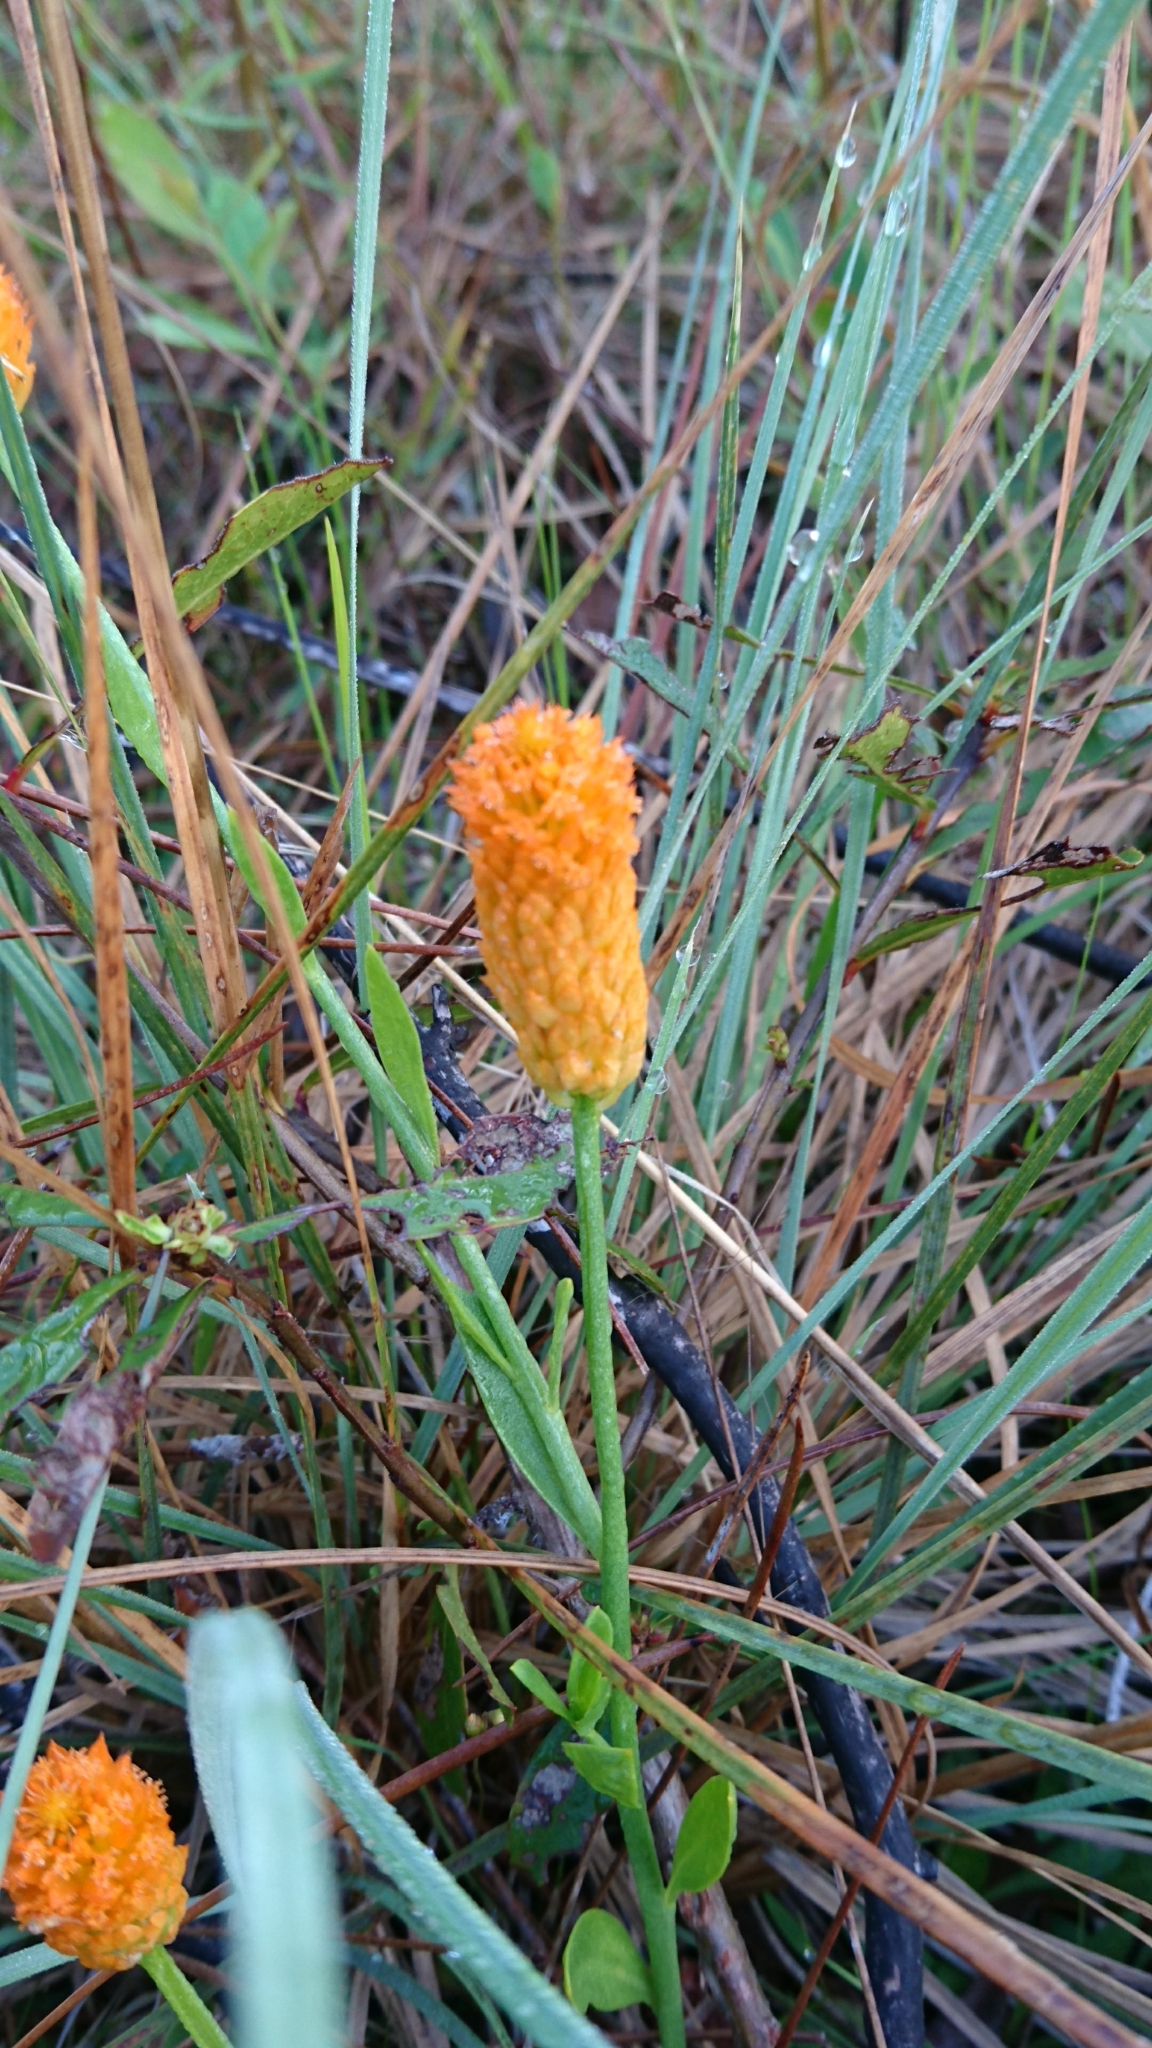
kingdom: Plantae
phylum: Tracheophyta
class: Magnoliopsida
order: Fabales
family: Polygalaceae
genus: Polygala
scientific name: Polygala lutea
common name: Orange milkwort
